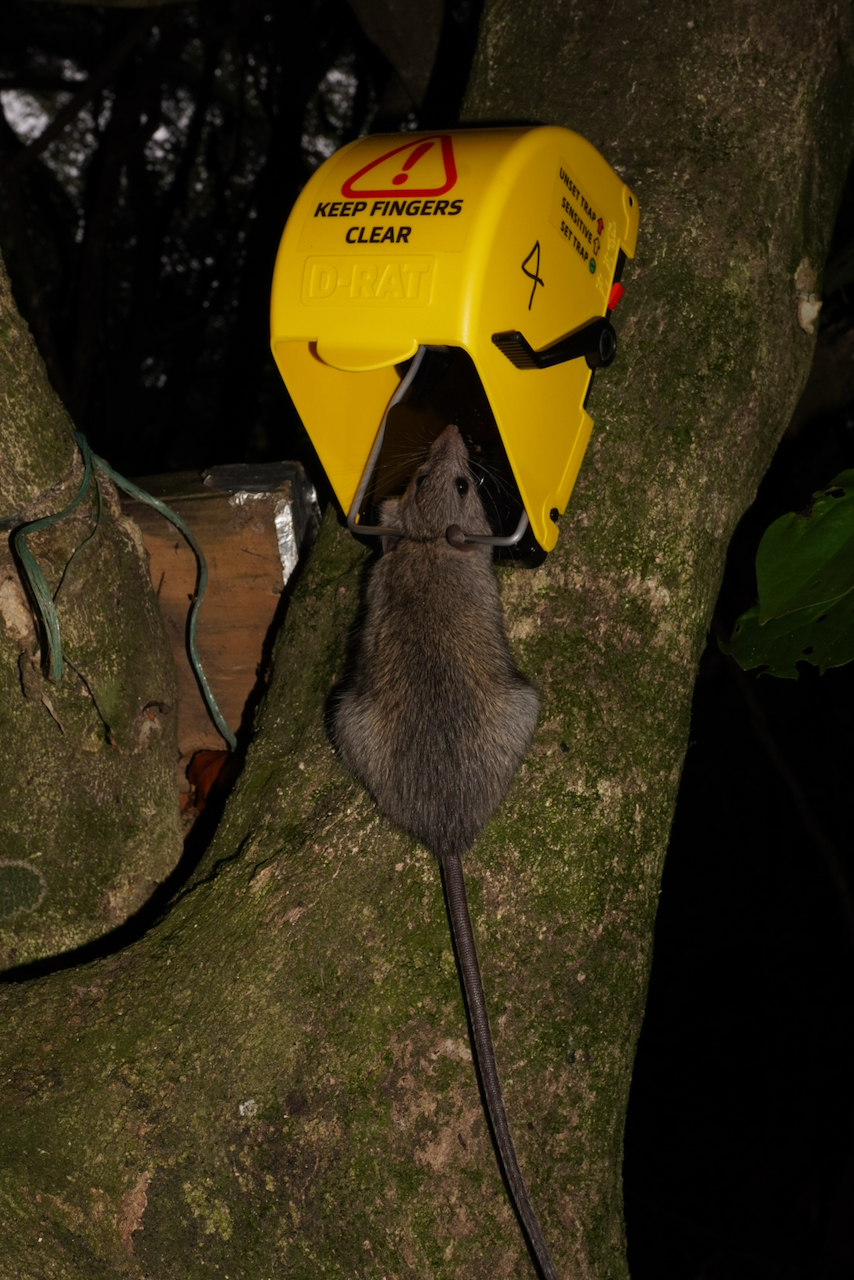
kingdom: Animalia
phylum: Chordata
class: Mammalia
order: Rodentia
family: Muridae
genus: Rattus
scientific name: Rattus rattus
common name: Black rat
